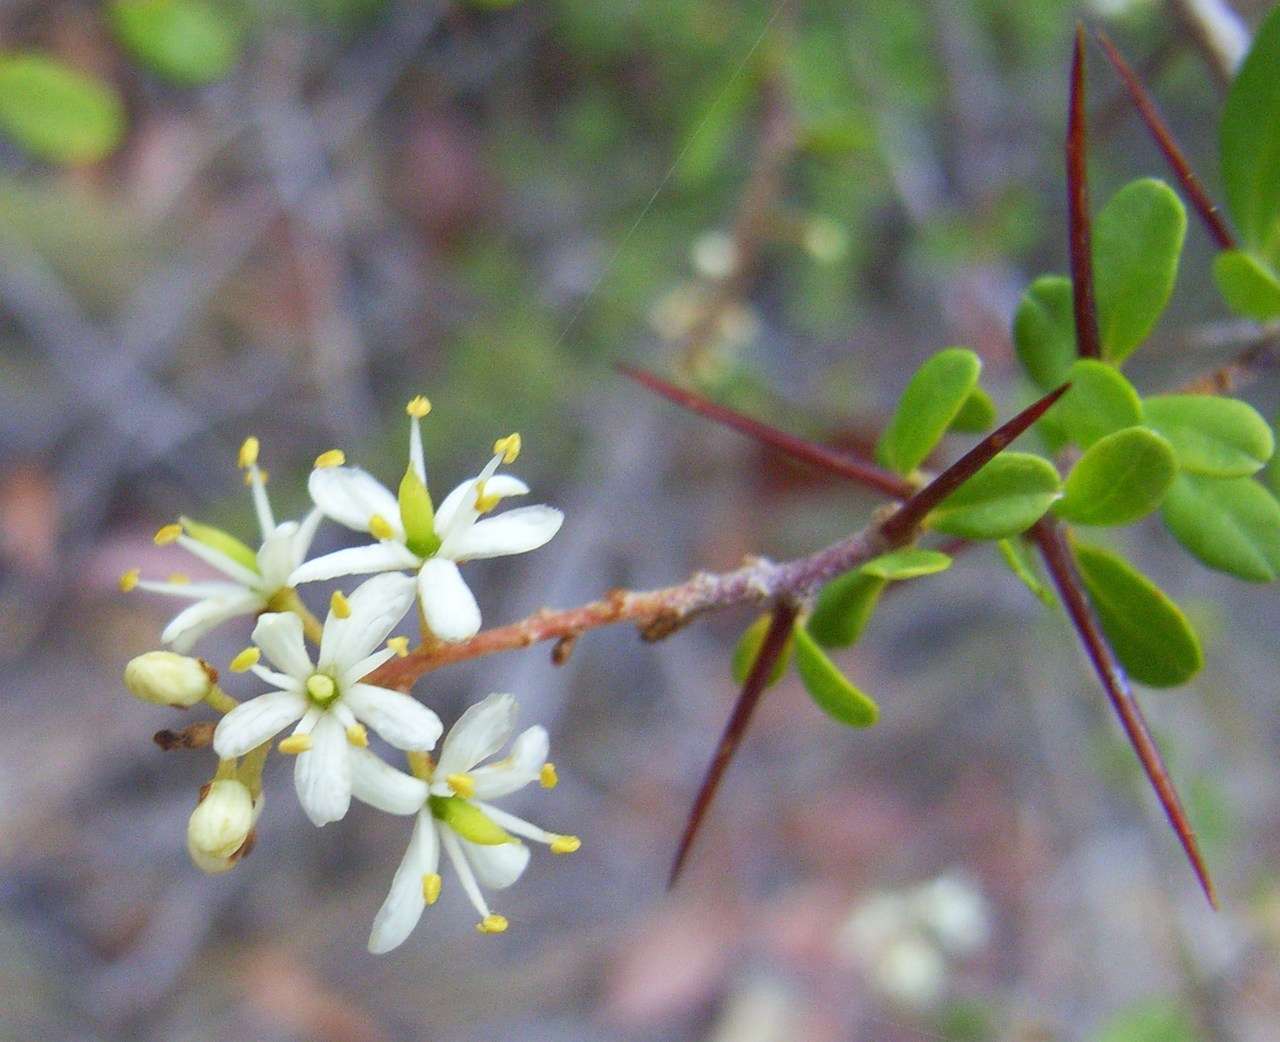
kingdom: Plantae
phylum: Tracheophyta
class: Magnoliopsida
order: Apiales
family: Pittosporaceae
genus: Bursaria
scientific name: Bursaria spinosa
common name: Australian blackthorn
